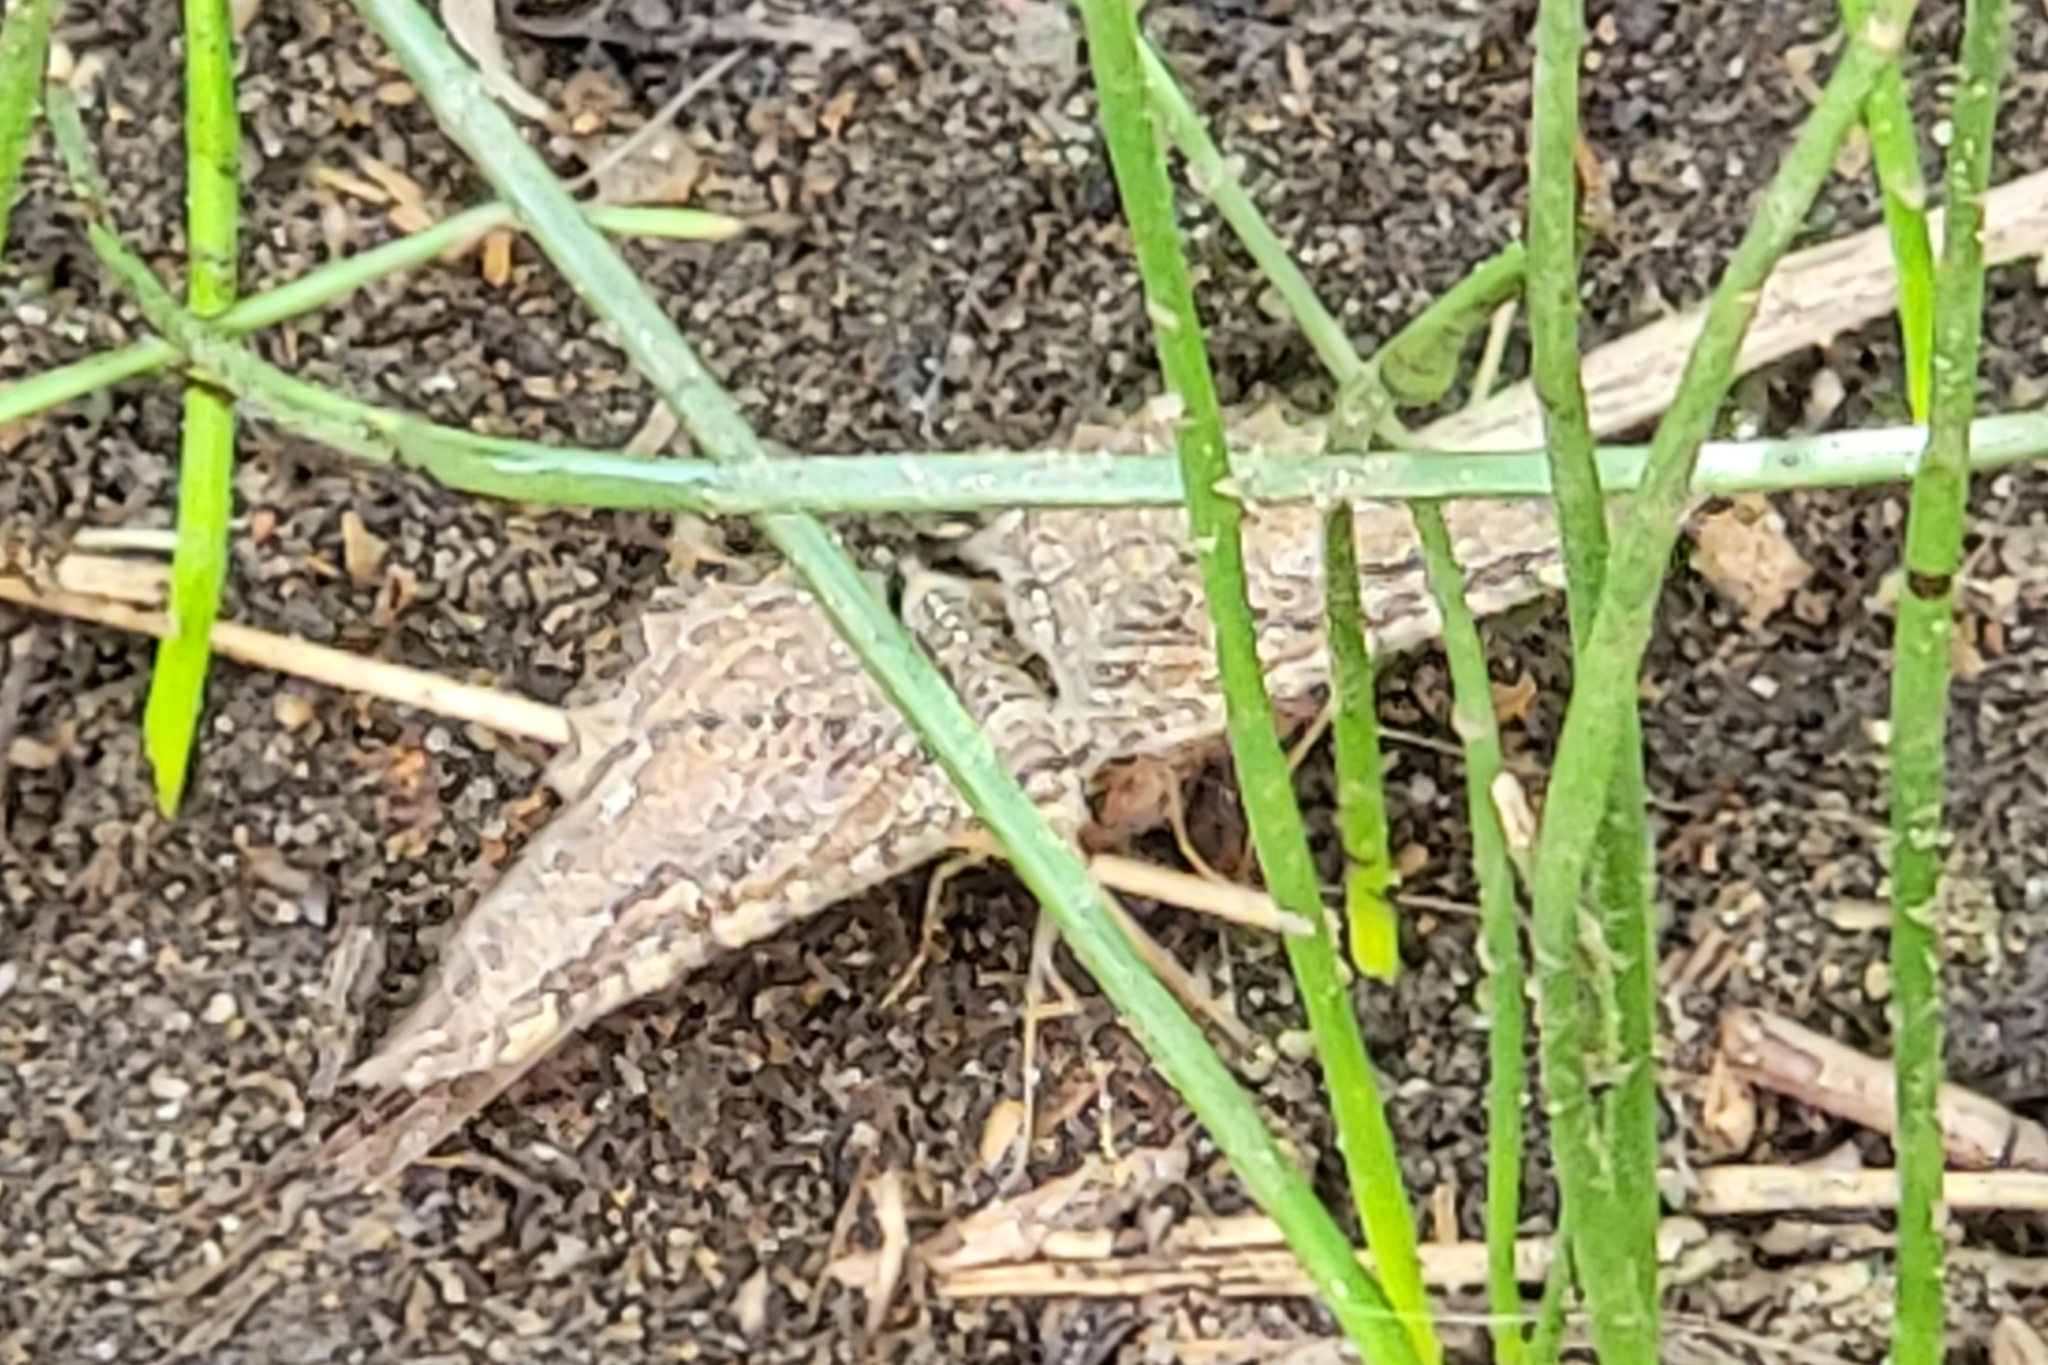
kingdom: Animalia
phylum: Arthropoda
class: Insecta
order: Lepidoptera
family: Geometridae
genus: Rheumaptera
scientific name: Rheumaptera undulata
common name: Scallop shell
